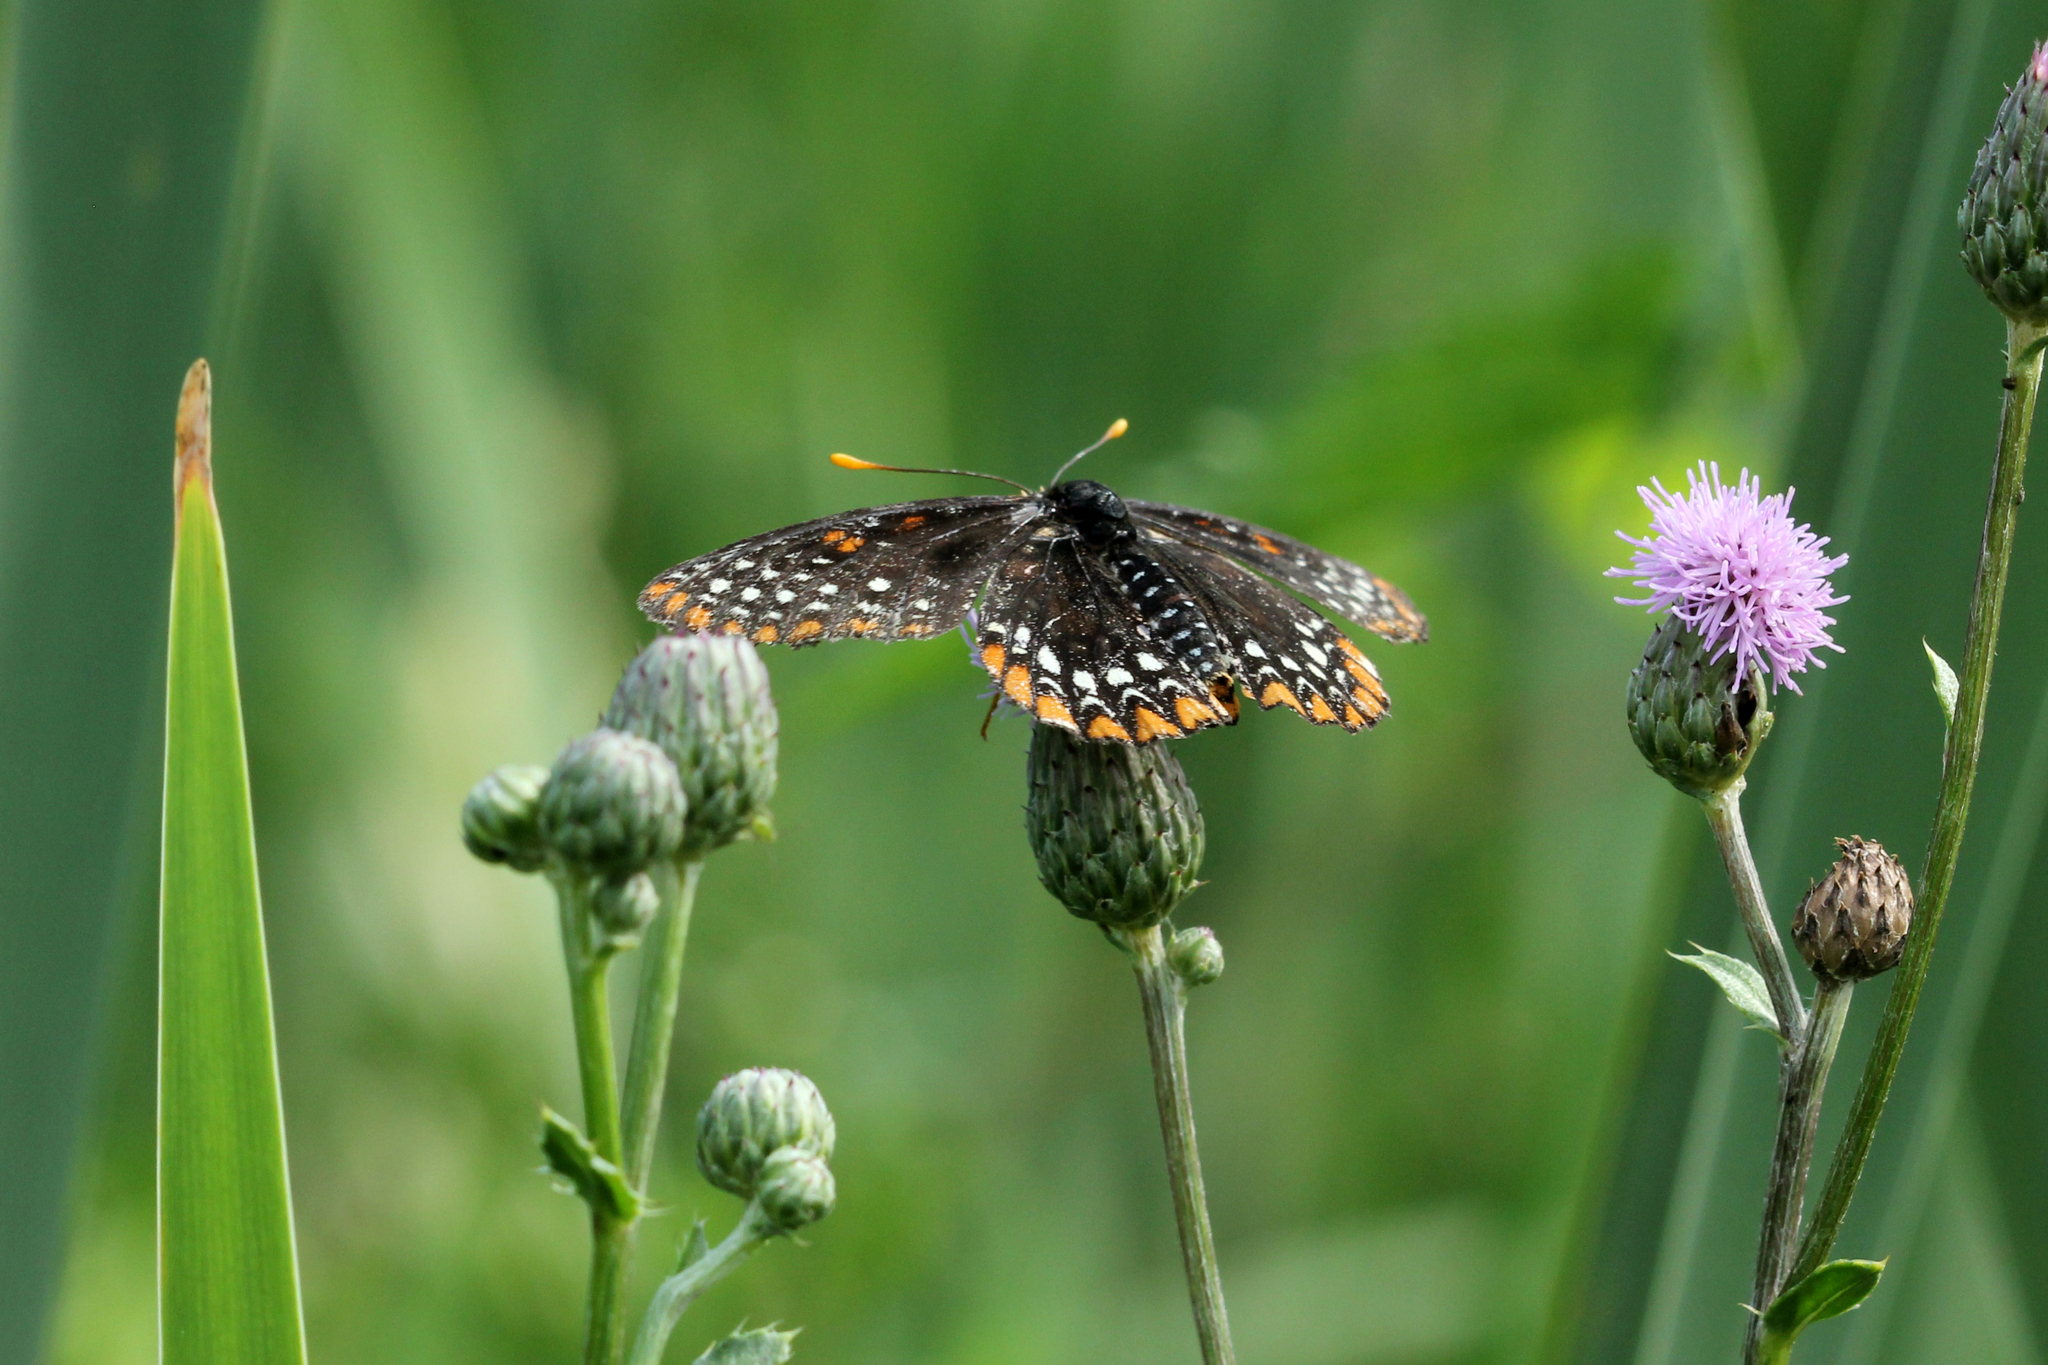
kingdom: Animalia
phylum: Arthropoda
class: Insecta
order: Lepidoptera
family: Nymphalidae
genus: Euphydryas
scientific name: Euphydryas phaeton
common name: Baltimore checkerspot
